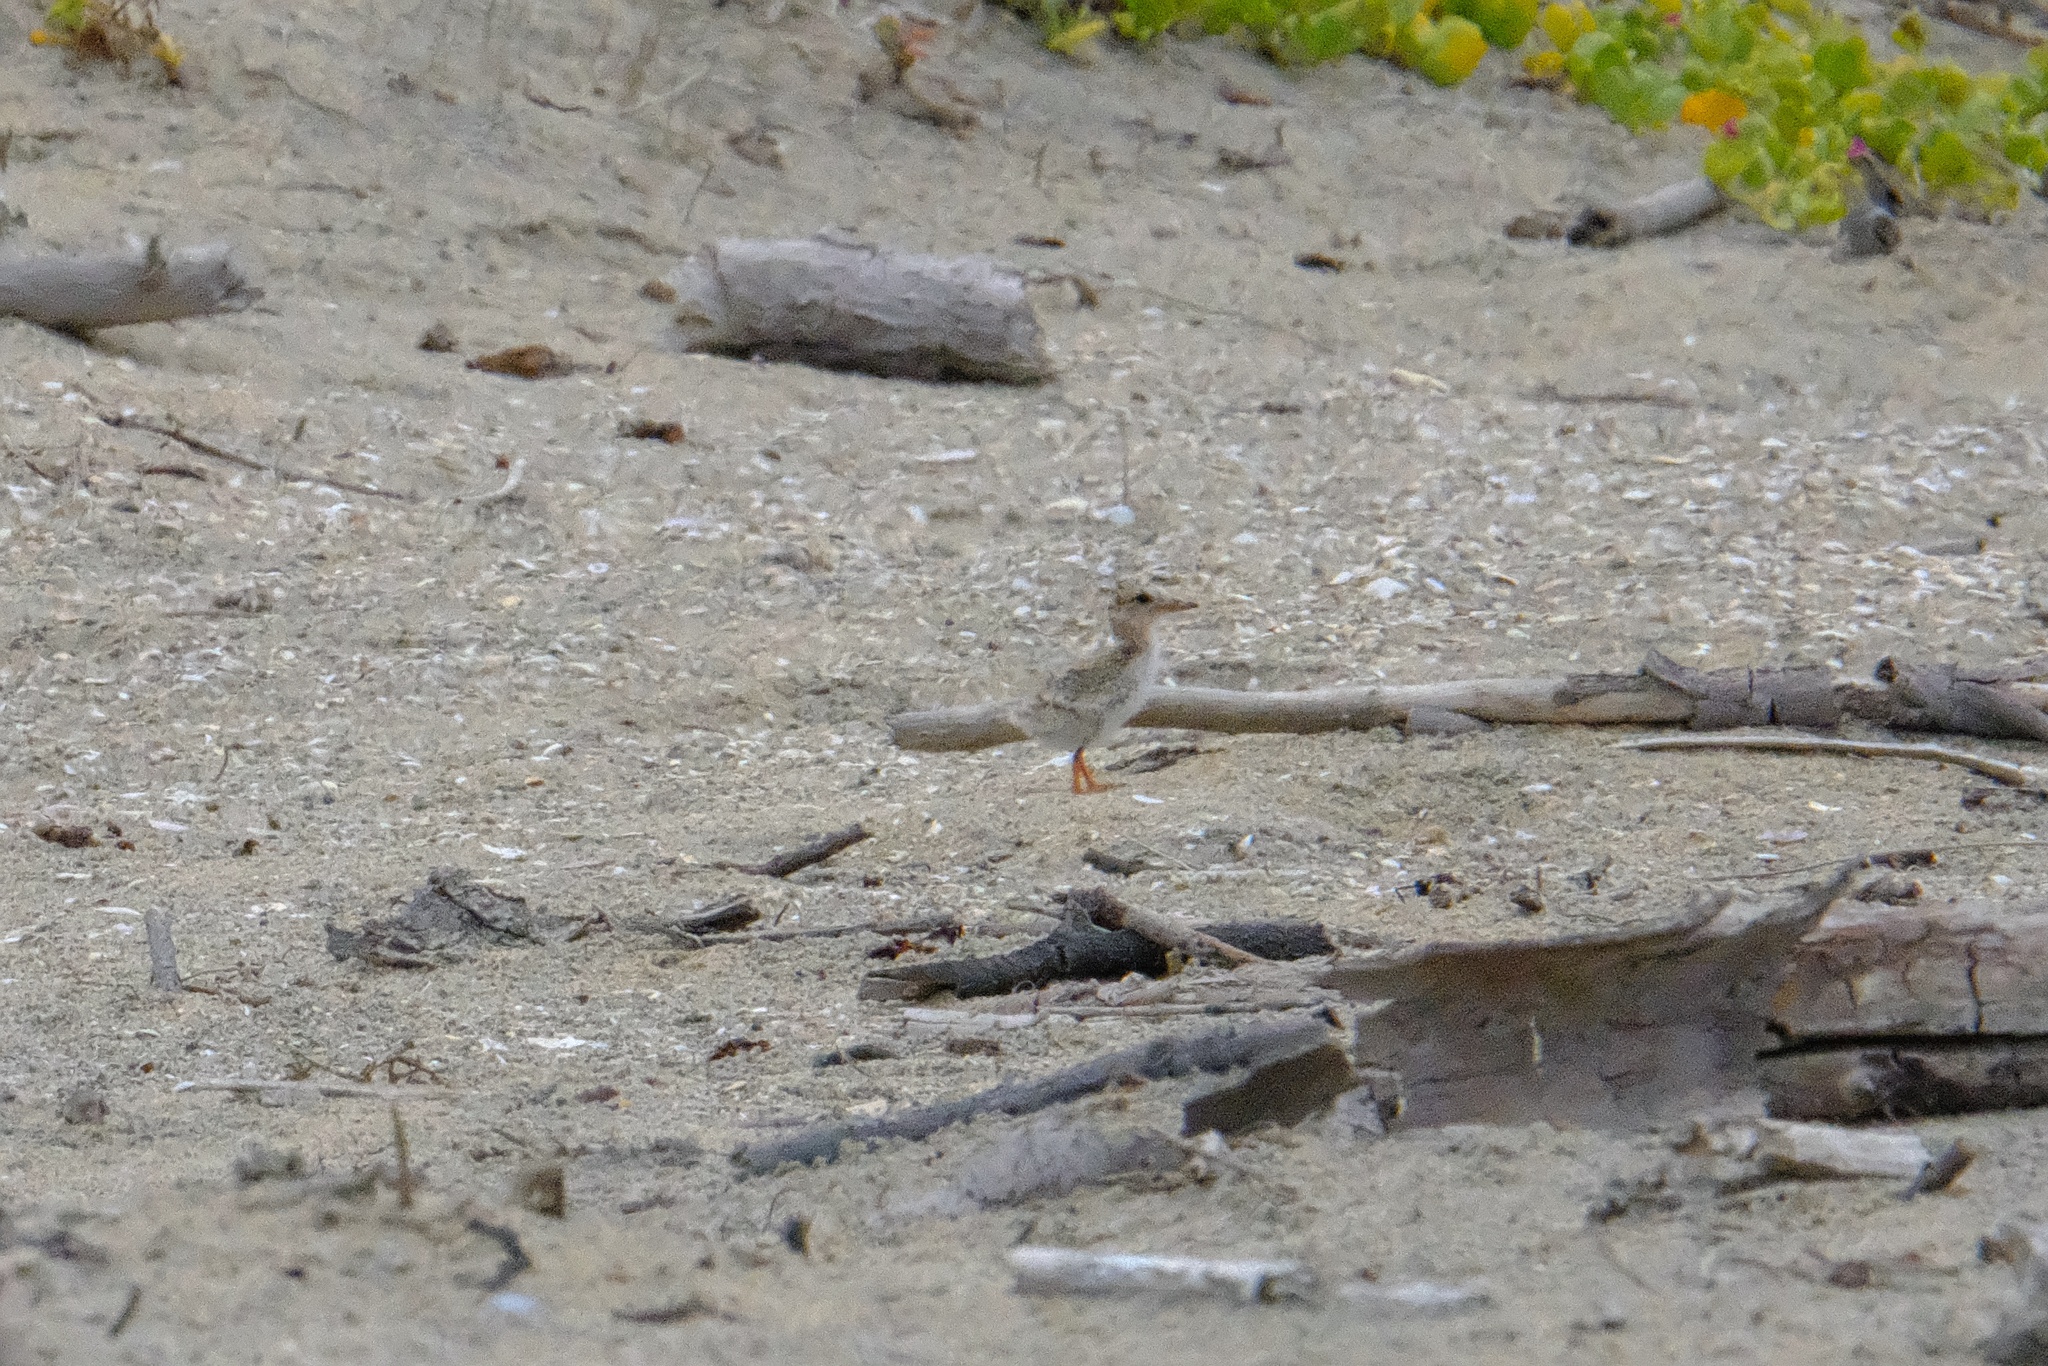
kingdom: Animalia
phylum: Chordata
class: Aves
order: Charadriiformes
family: Laridae
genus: Sternula
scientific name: Sternula antillarum
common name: Least tern
